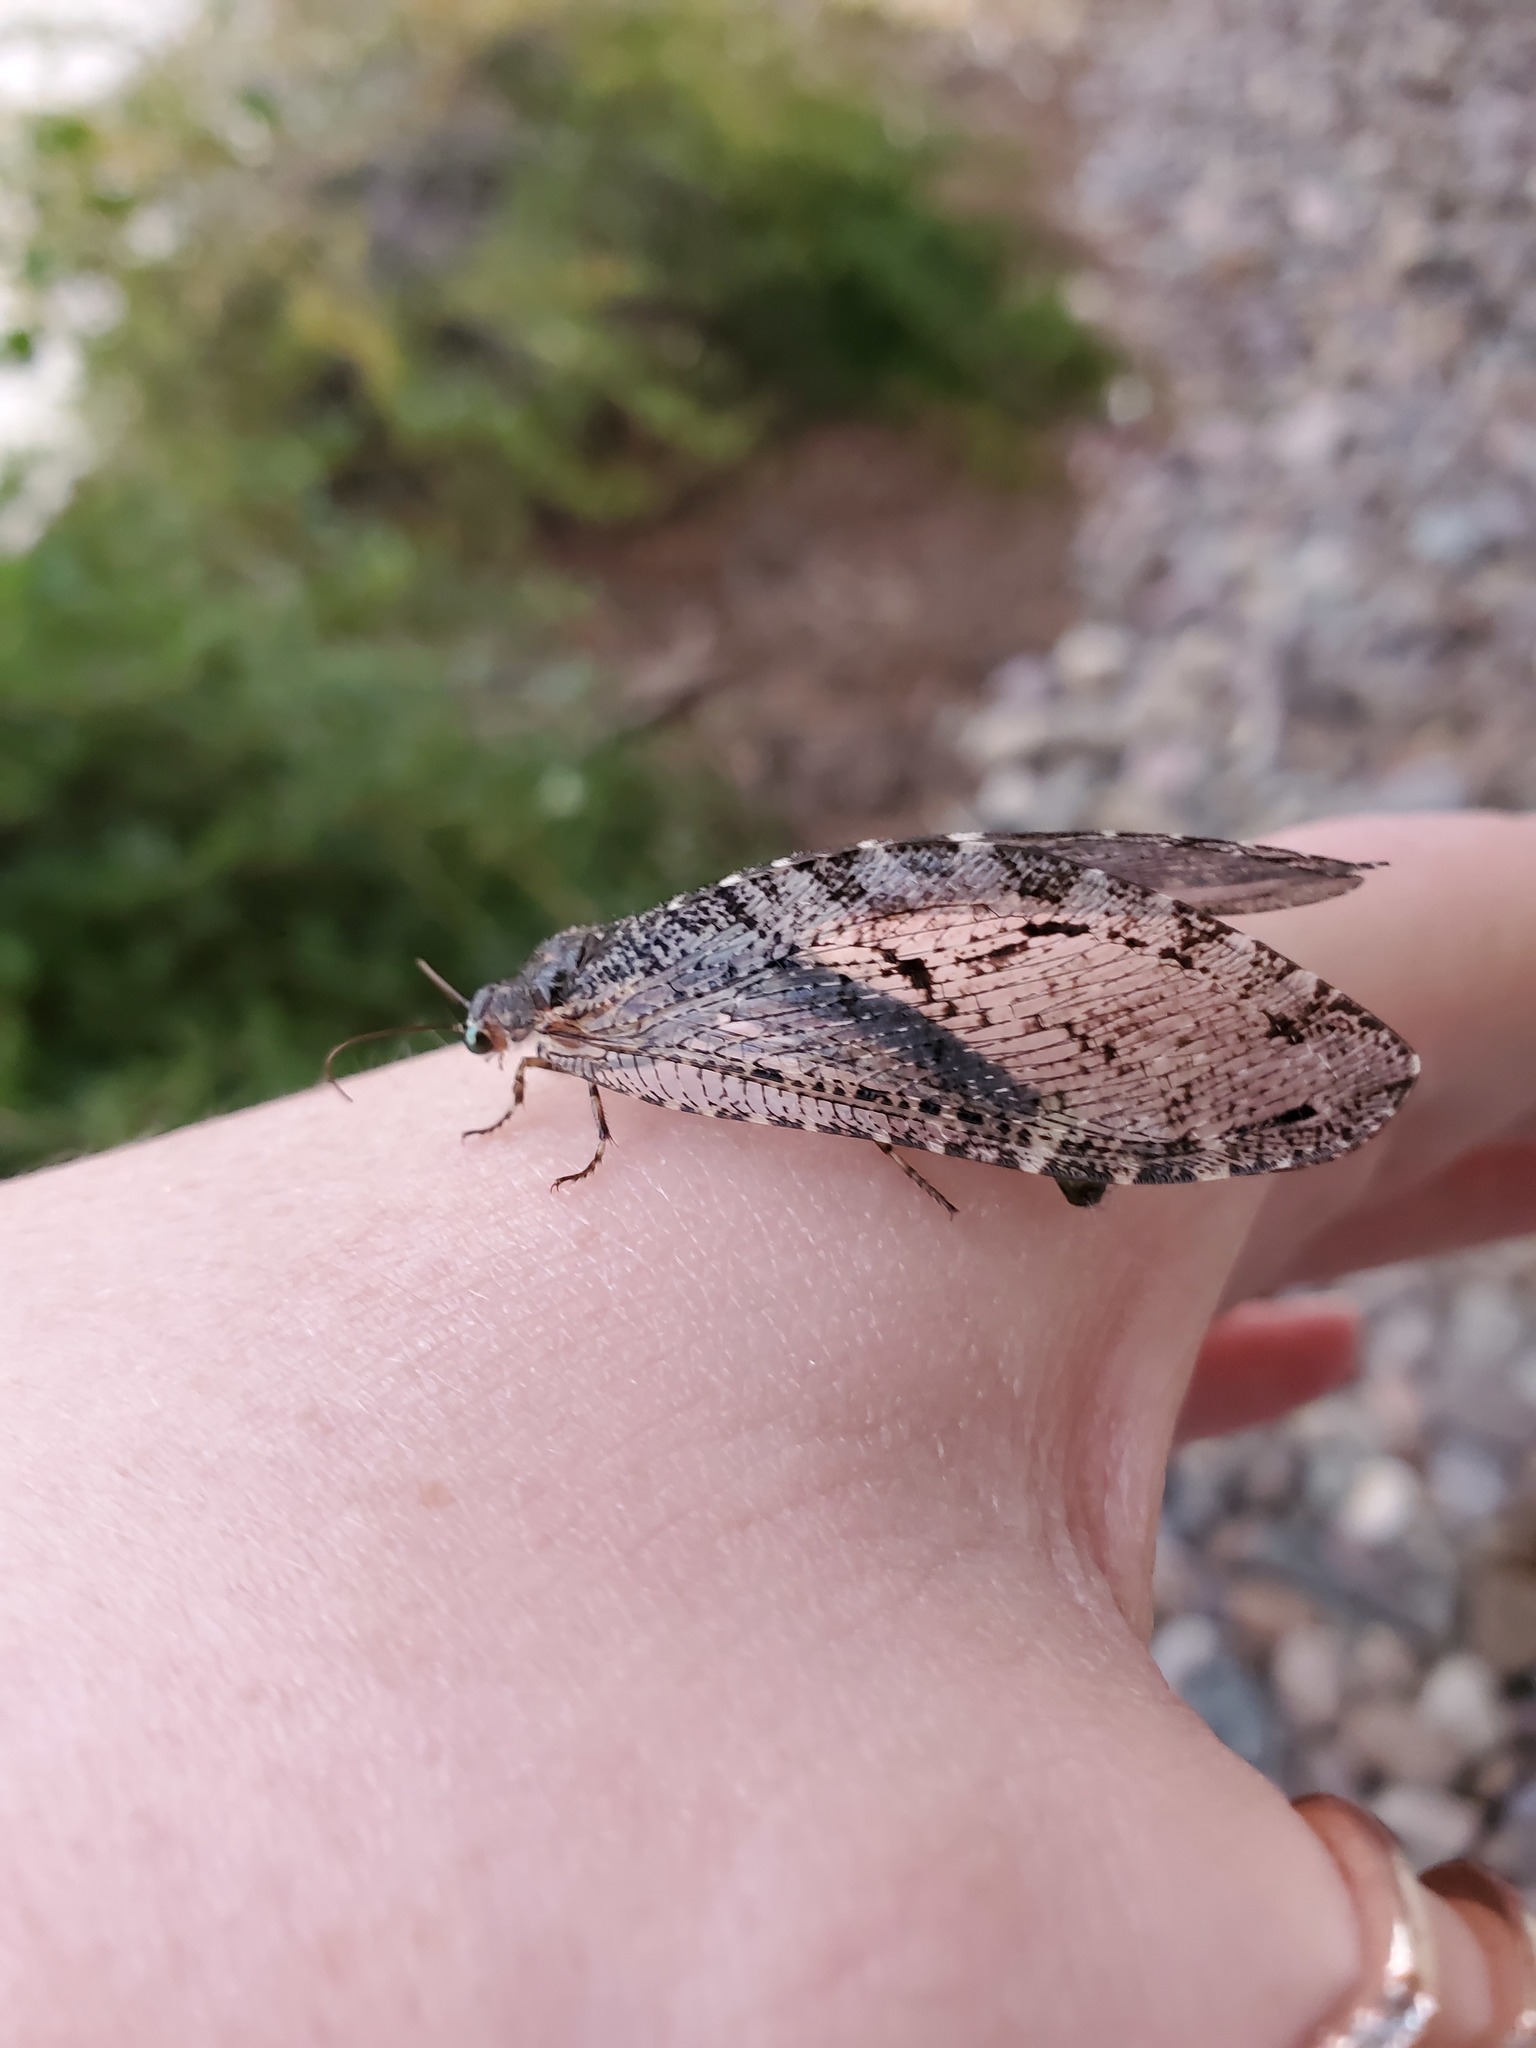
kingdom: Animalia
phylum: Arthropoda
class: Insecta
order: Neuroptera
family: Ithonidae
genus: Polystoechotes
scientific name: Polystoechotes punctata
